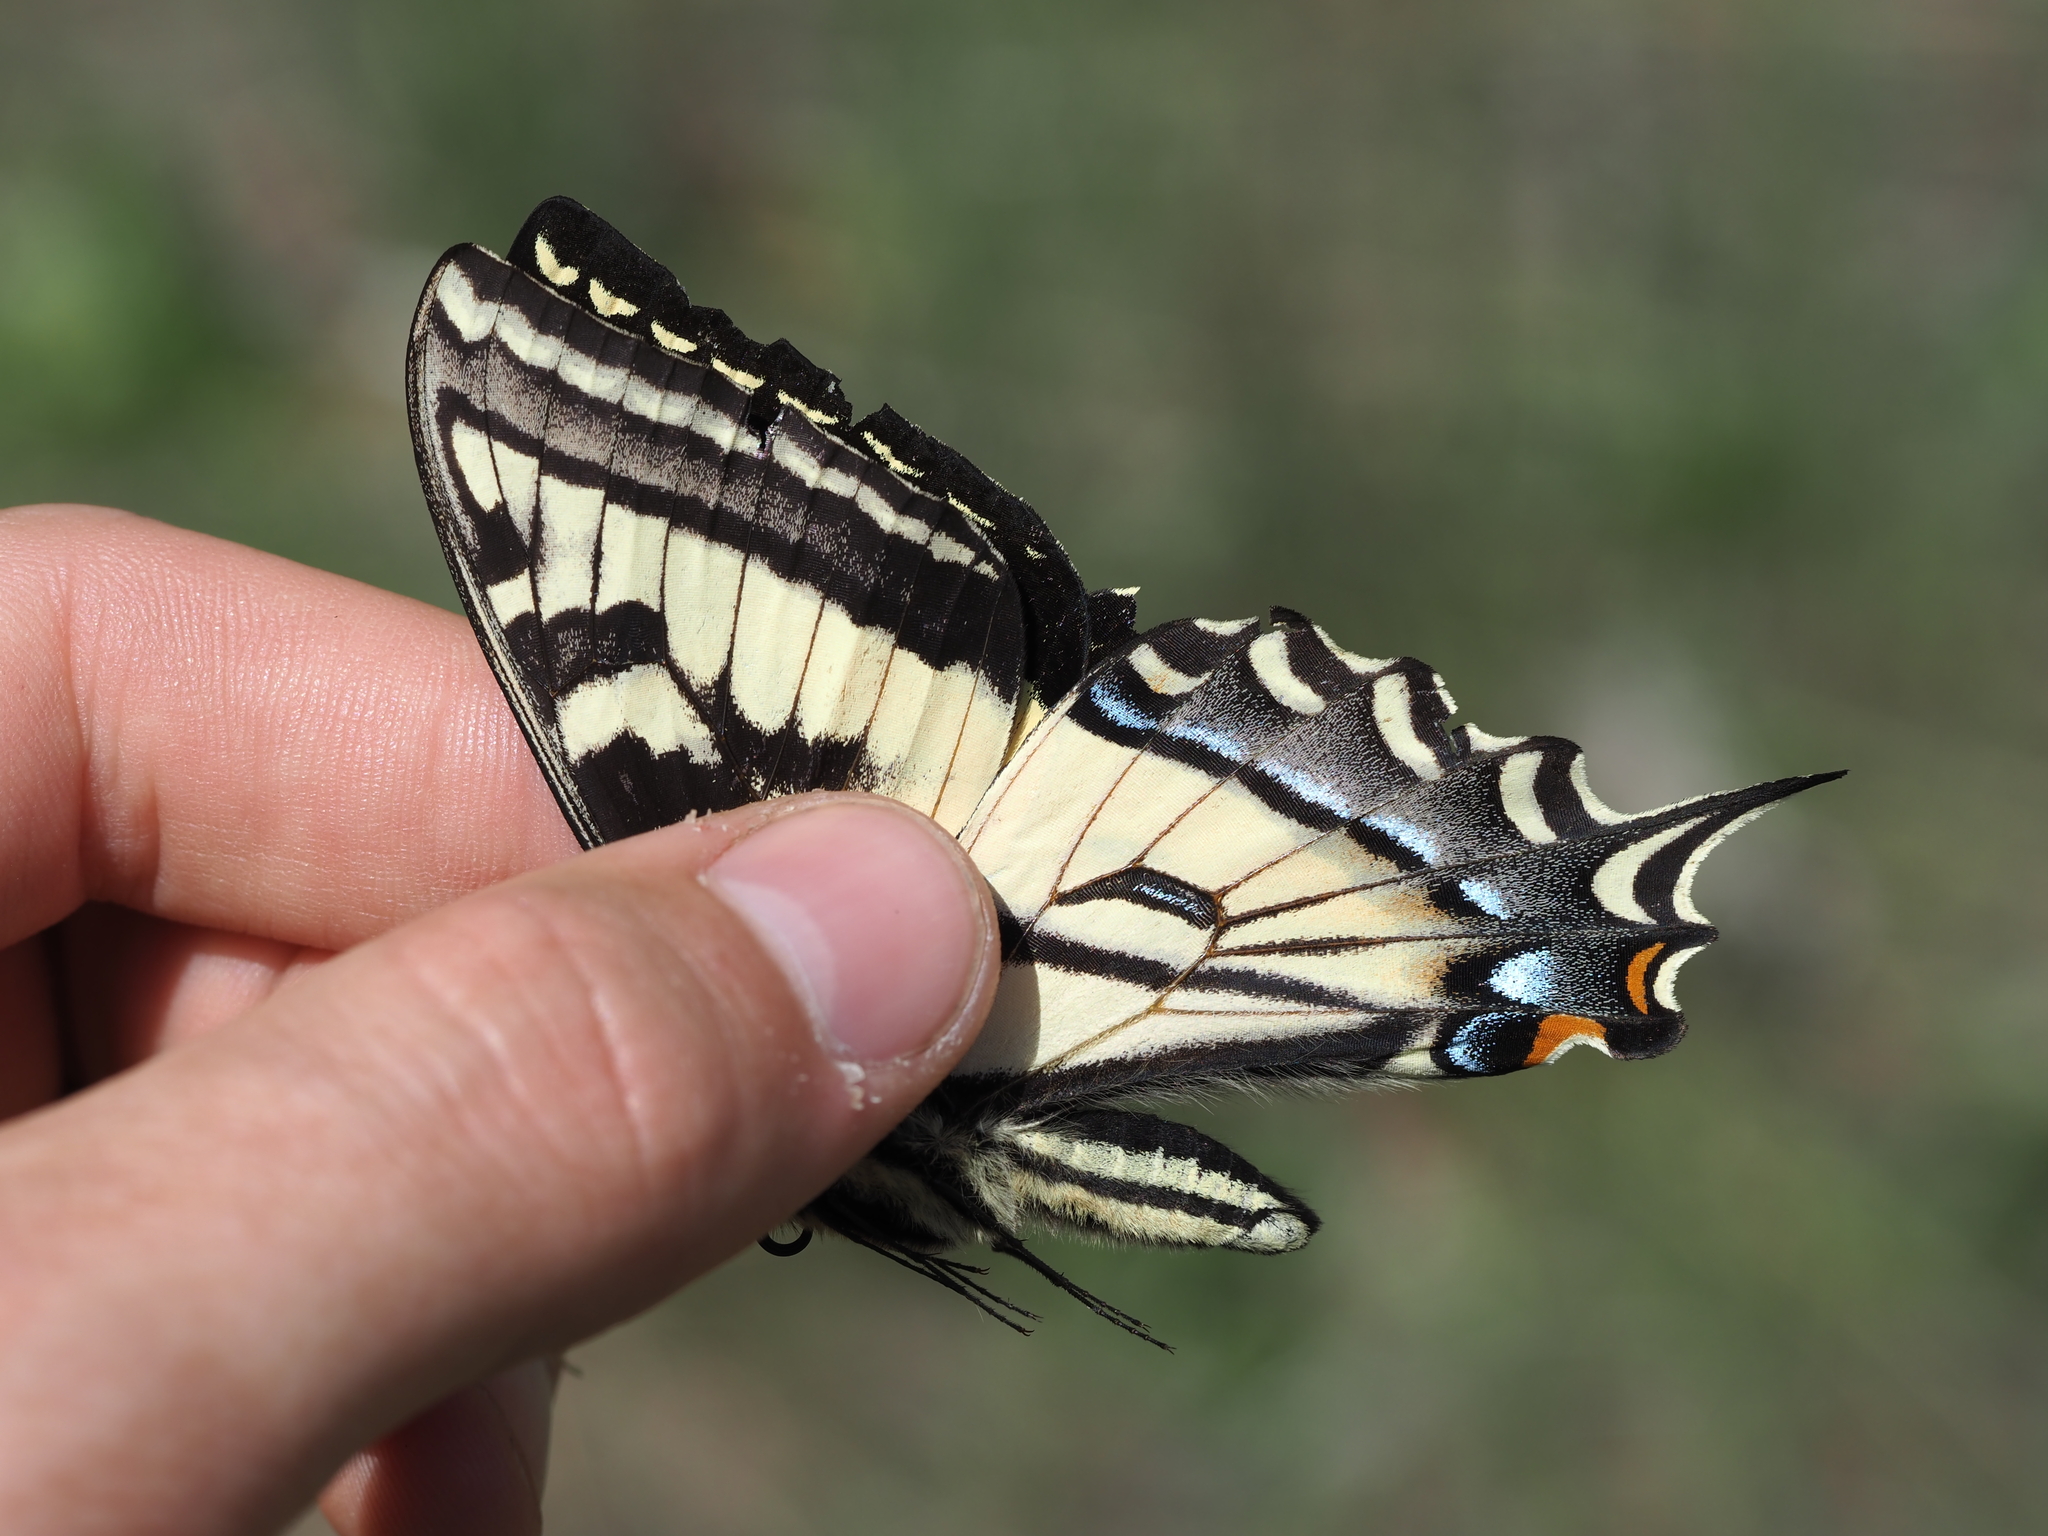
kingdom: Animalia
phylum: Arthropoda
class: Insecta
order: Lepidoptera
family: Papilionidae
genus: Papilio
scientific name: Papilio rutulus
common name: Western tiger swallowtail
